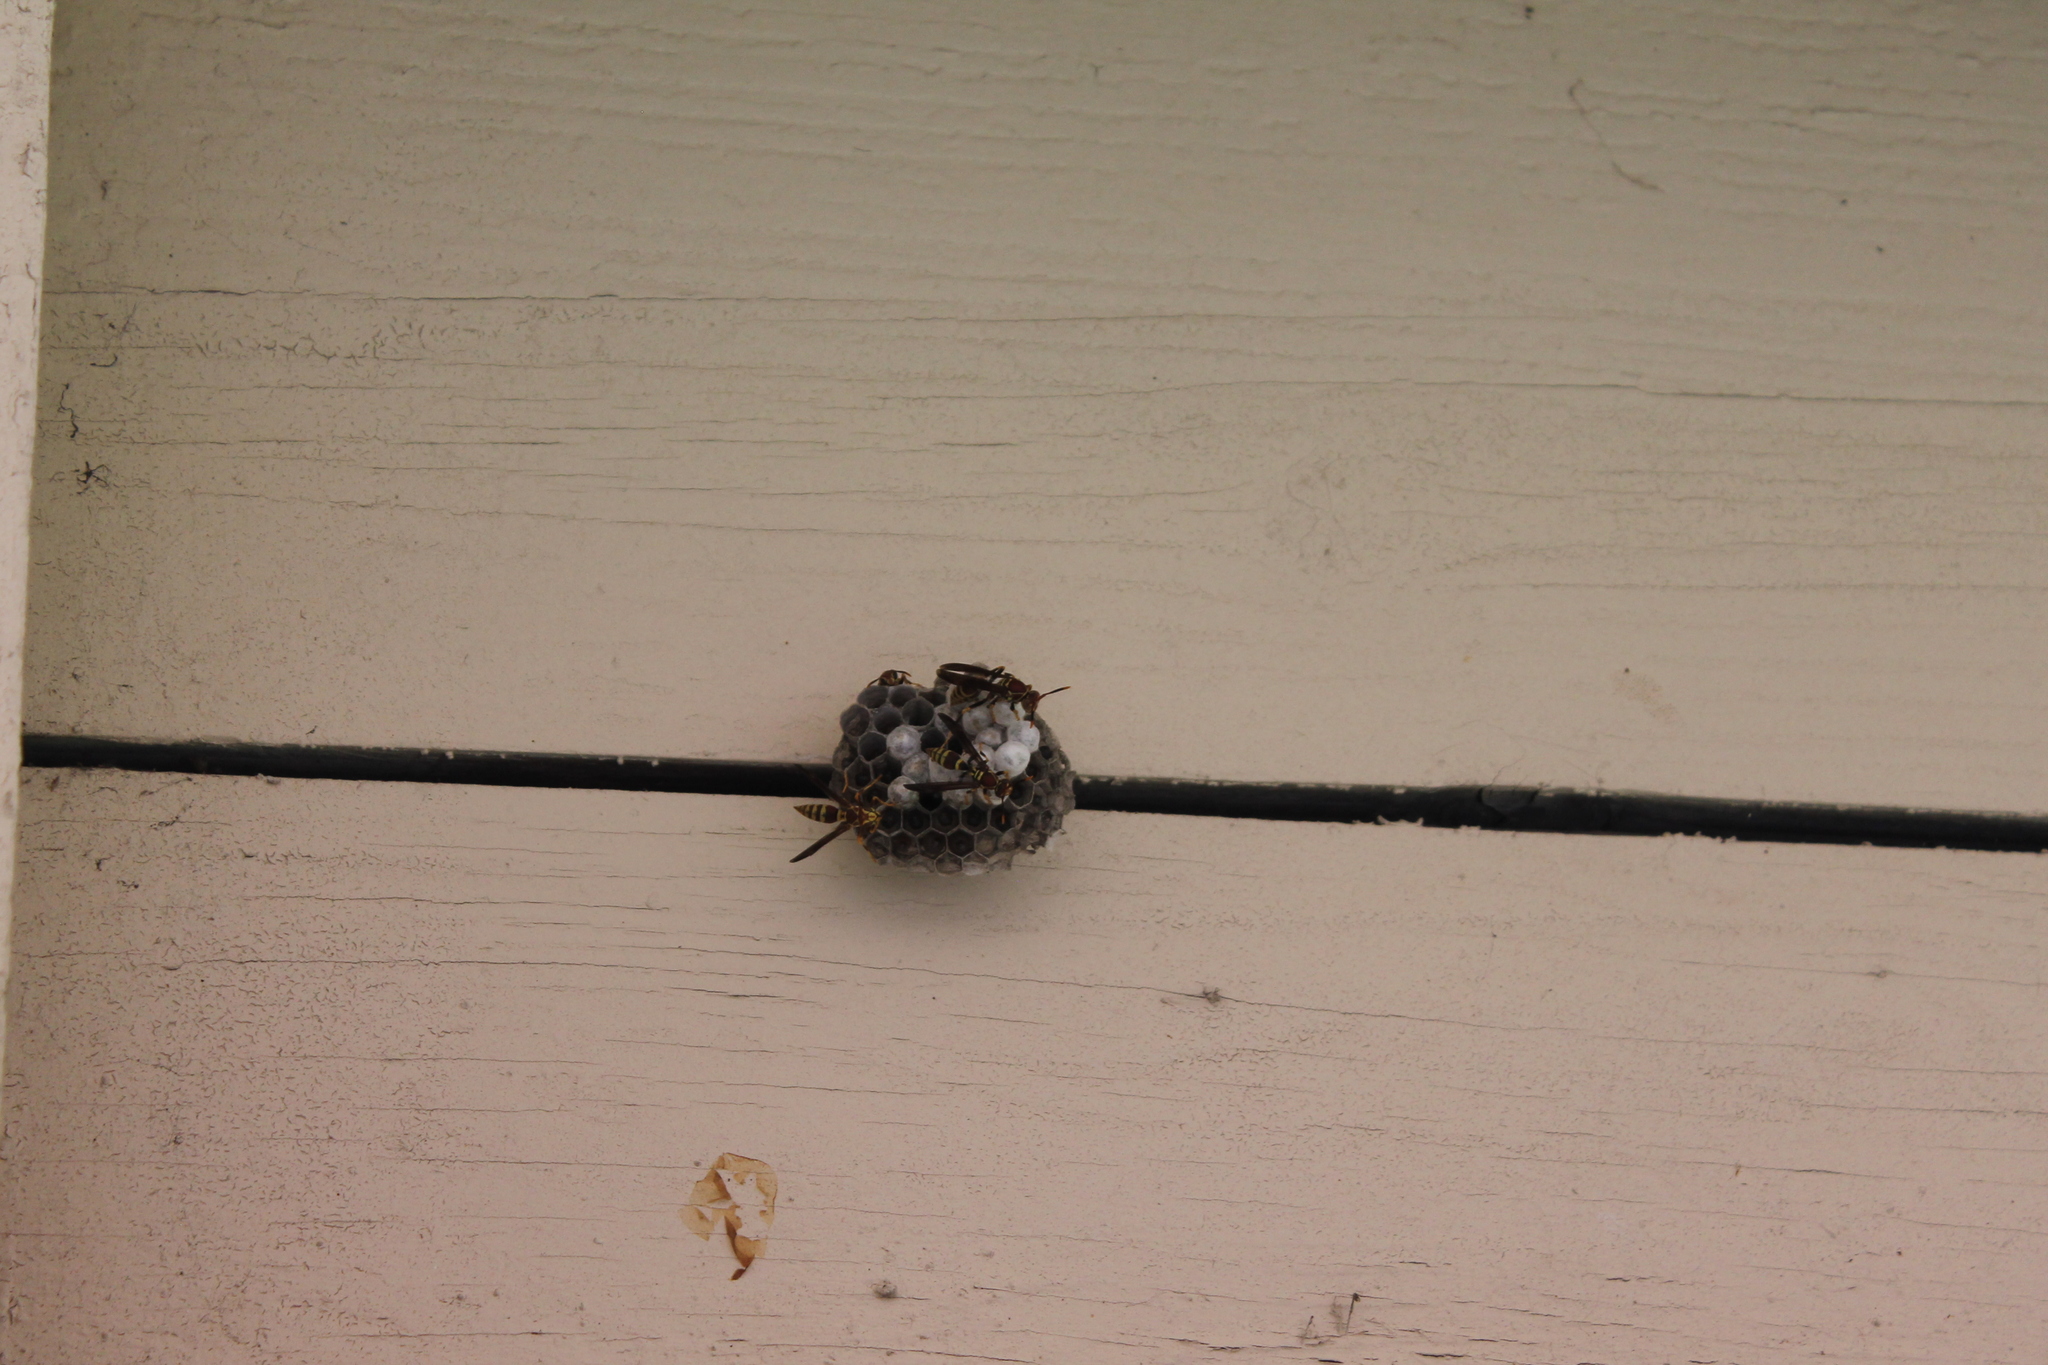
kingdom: Animalia
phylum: Arthropoda
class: Insecta
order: Hymenoptera
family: Eumenidae
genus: Polistes
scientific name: Polistes exclamans
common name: Paper wasp
